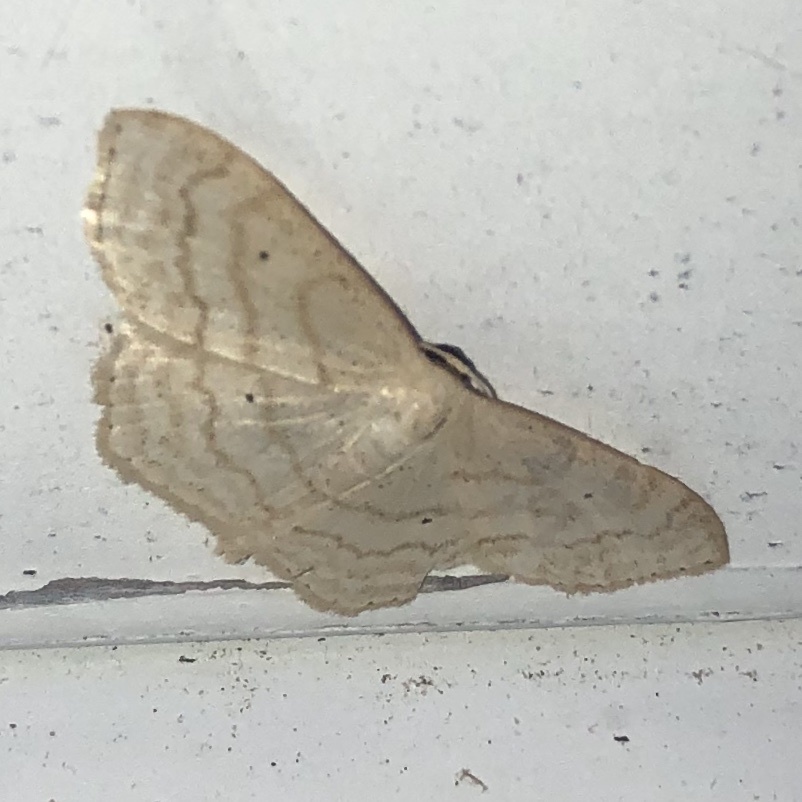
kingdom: Animalia
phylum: Arthropoda
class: Insecta
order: Lepidoptera
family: Geometridae
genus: Scopula
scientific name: Scopula limboundata
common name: Large lace border
